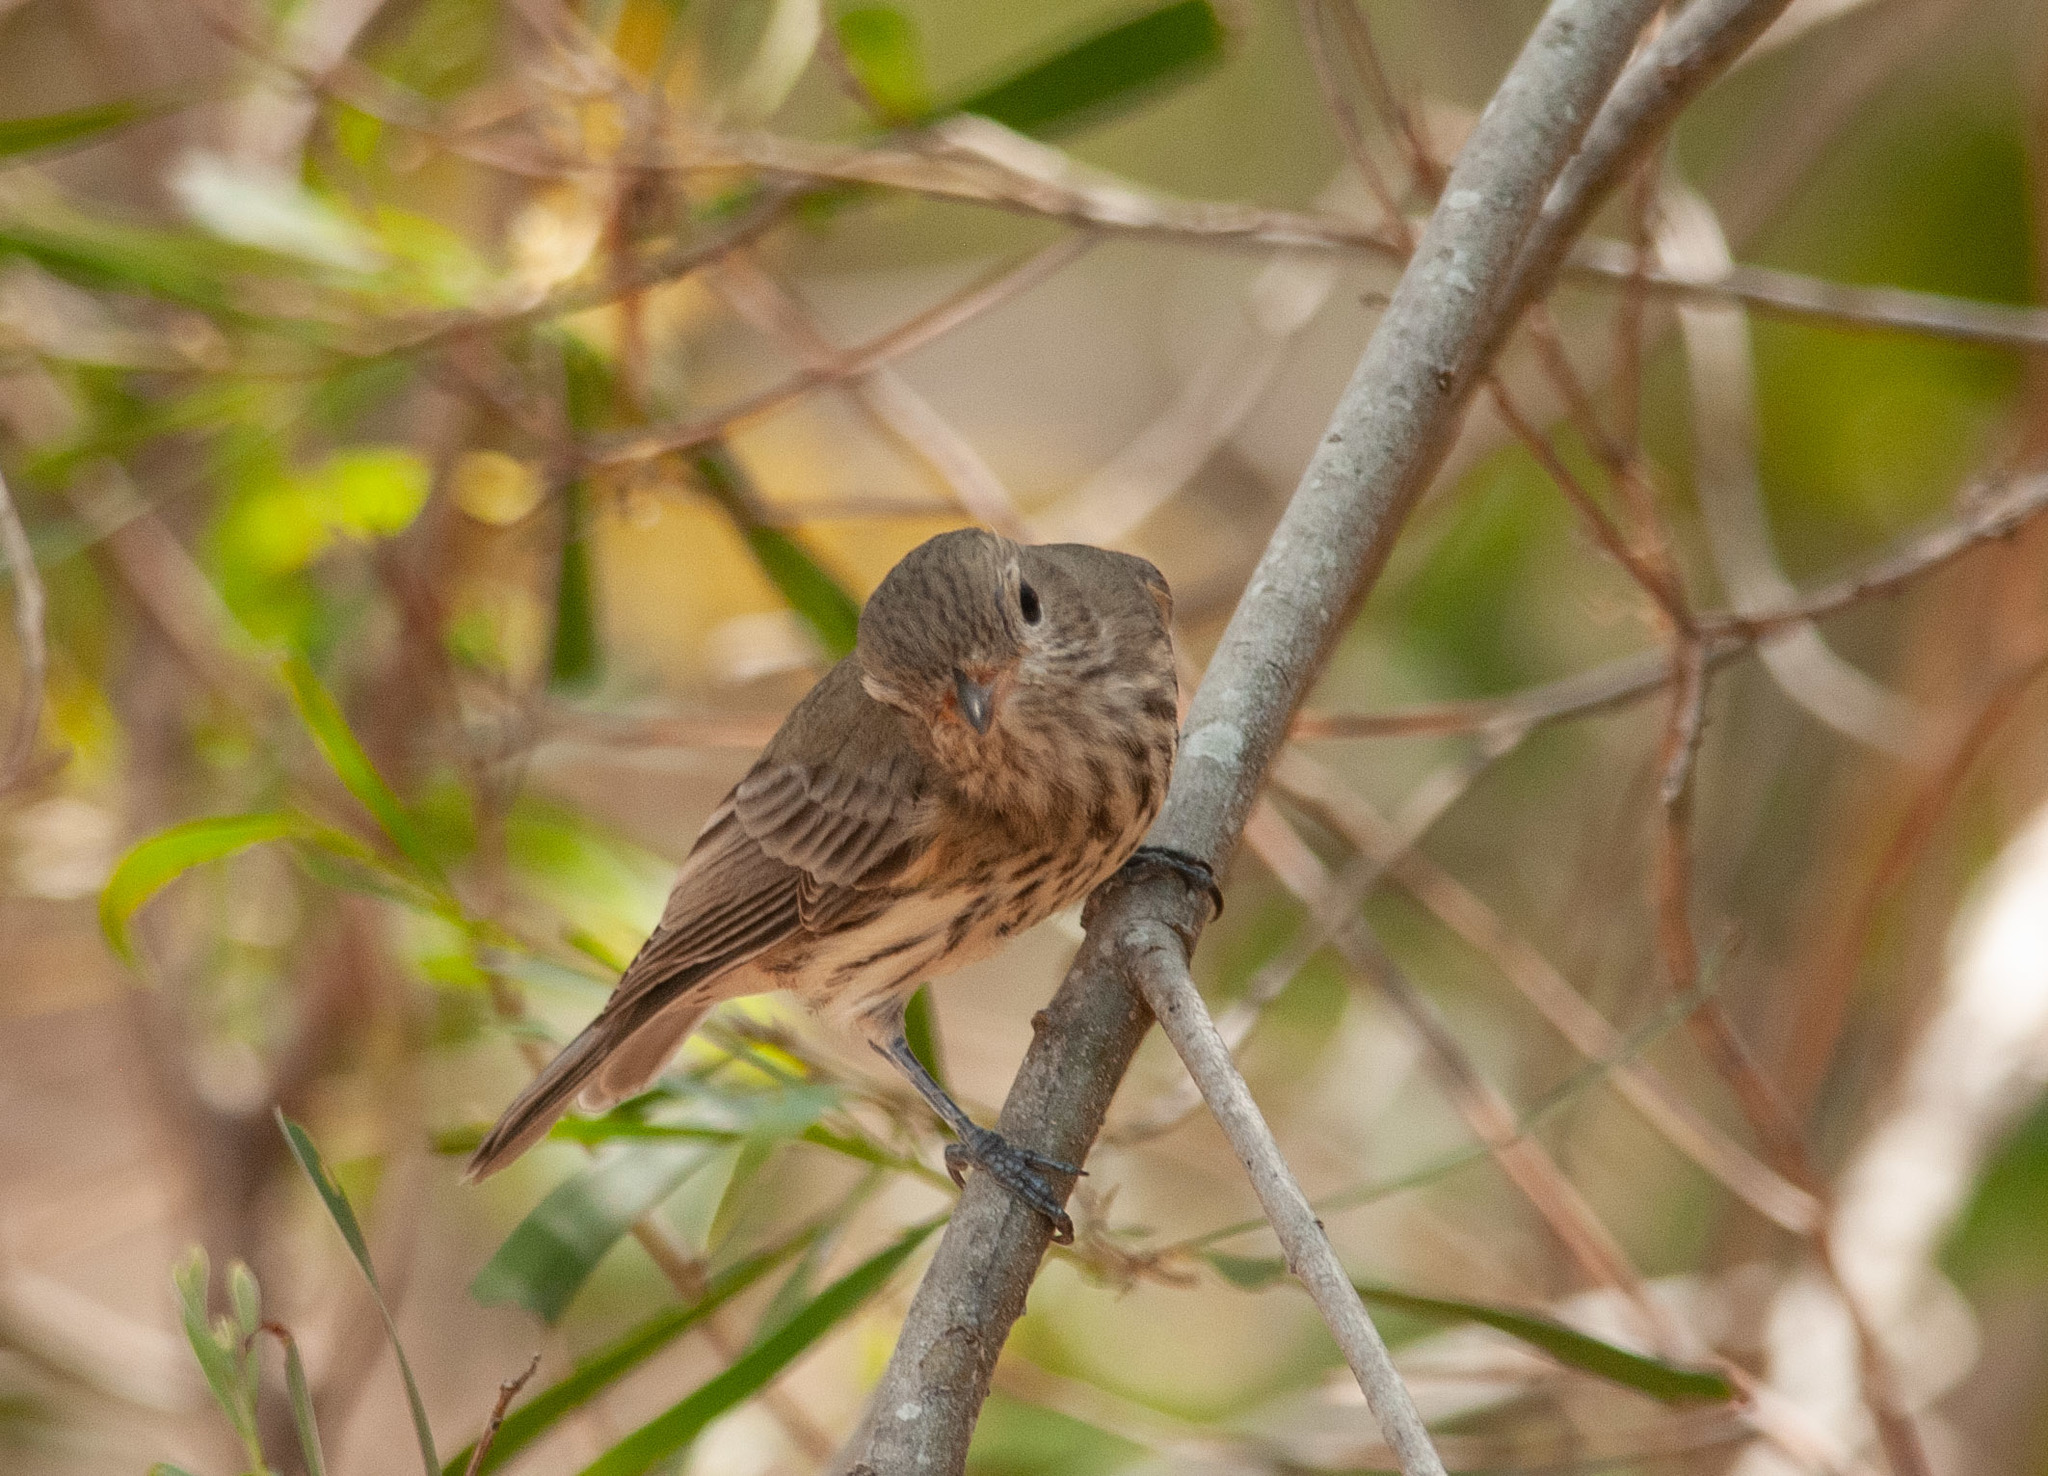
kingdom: Animalia
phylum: Chordata
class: Aves
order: Passeriformes
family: Pachycephalidae
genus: Pachycephala
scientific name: Pachycephala rufiventris
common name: Rufous whistler
